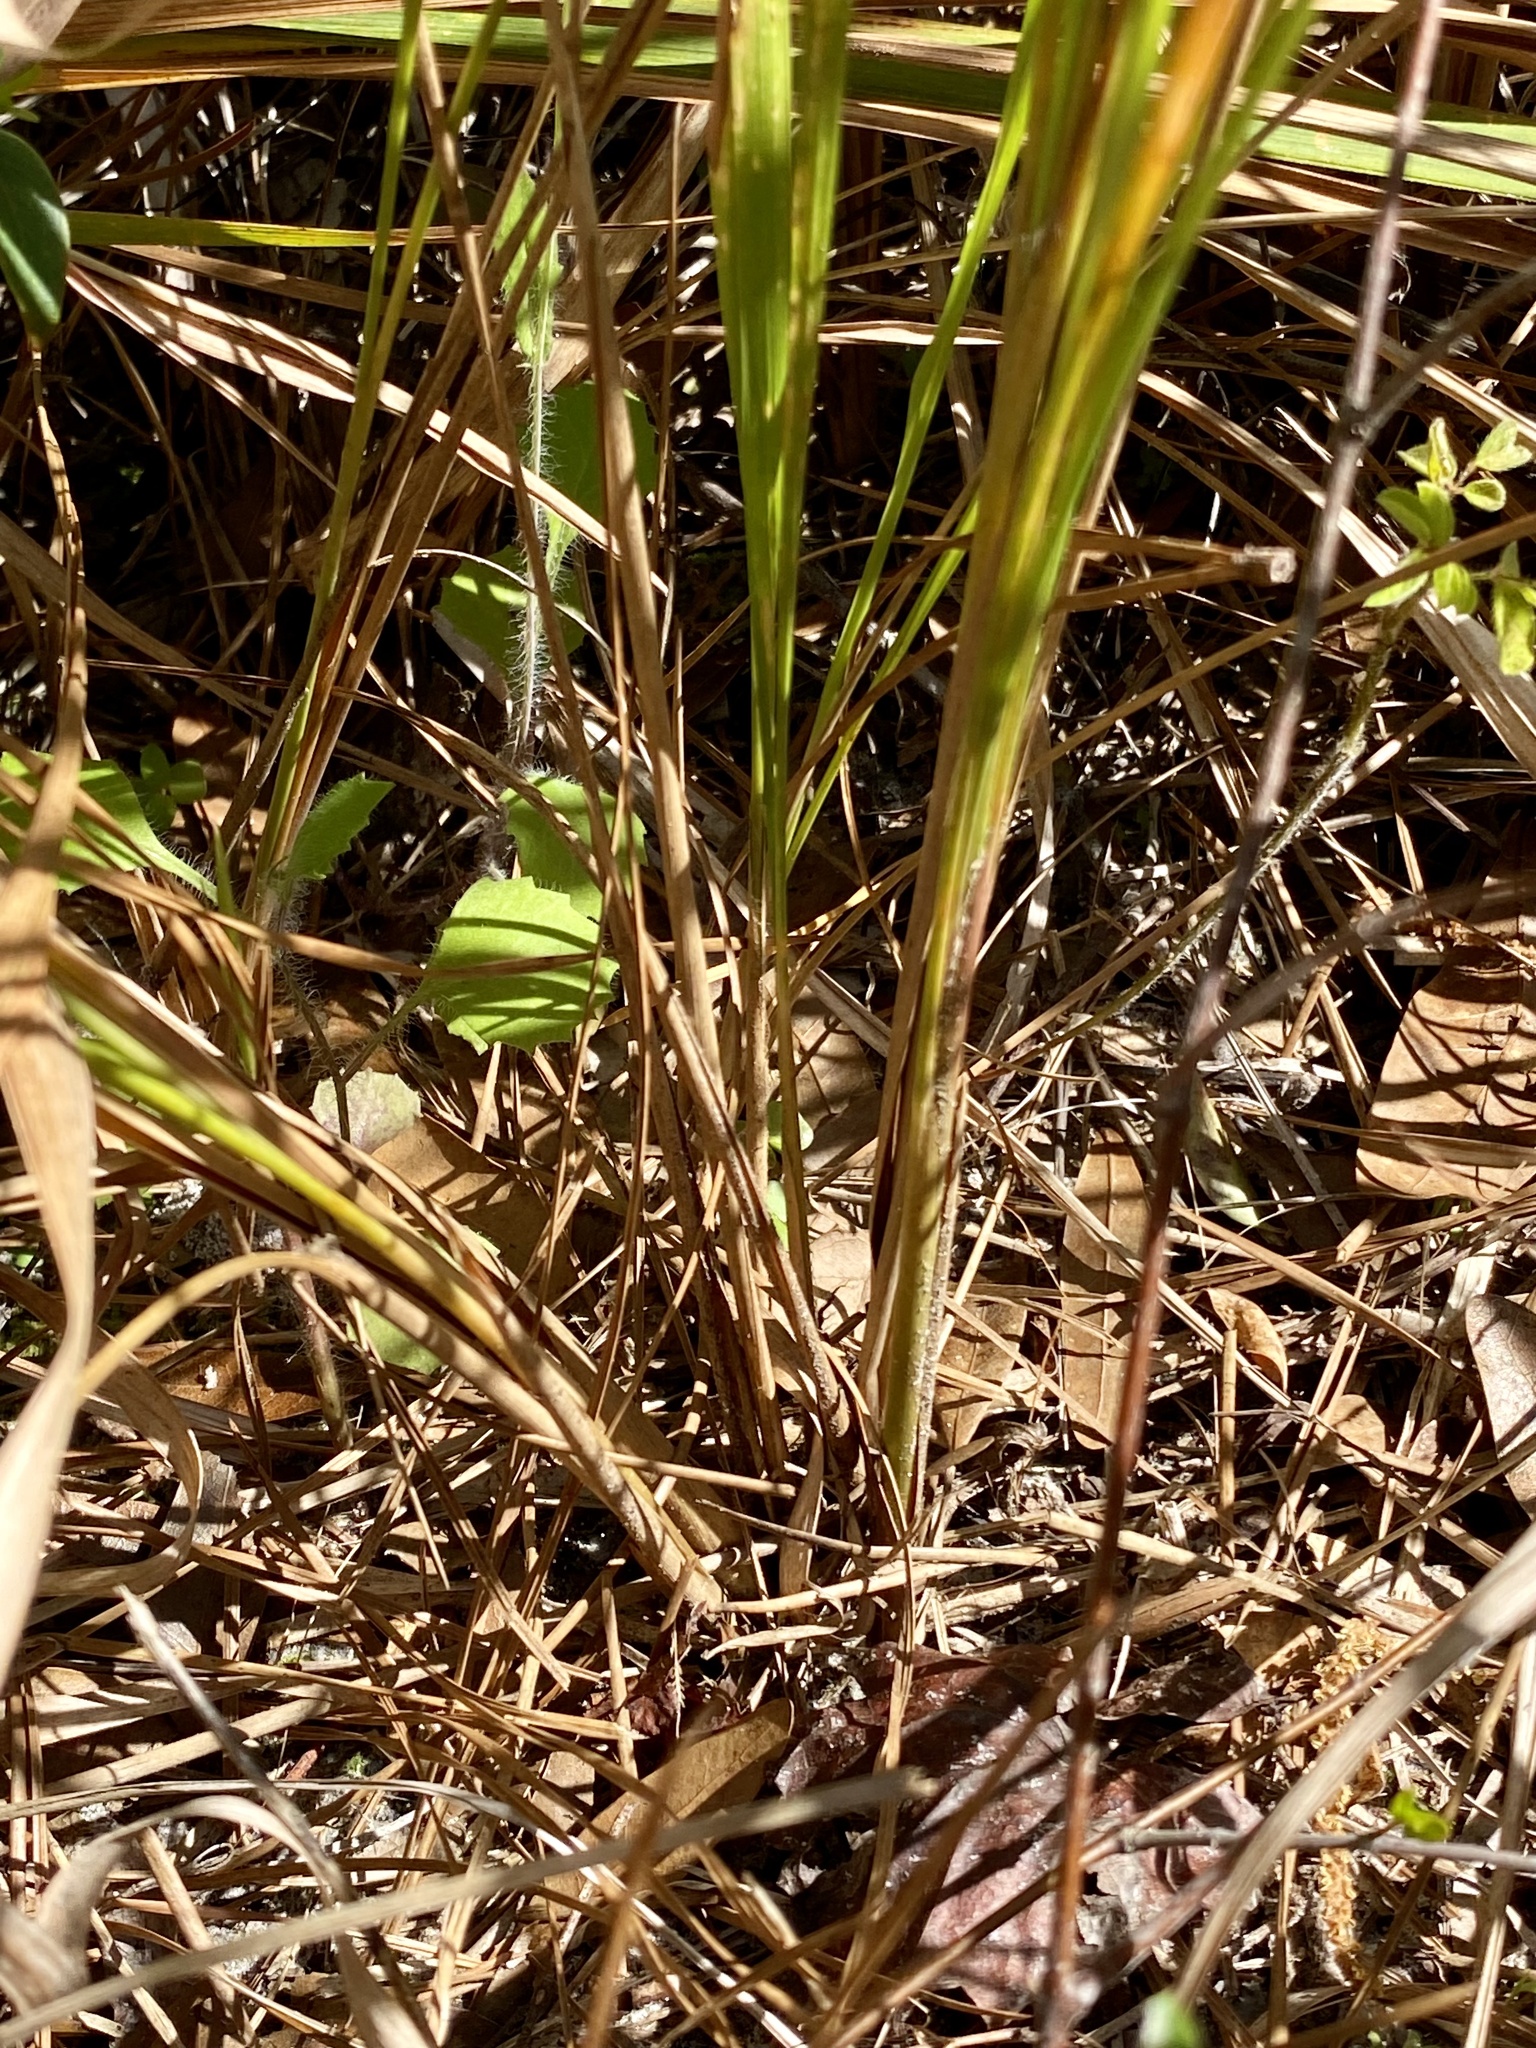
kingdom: Plantae
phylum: Tracheophyta
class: Liliopsida
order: Poales
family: Poaceae
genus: Imperata
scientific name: Imperata cylindrica
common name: Cogongrass
